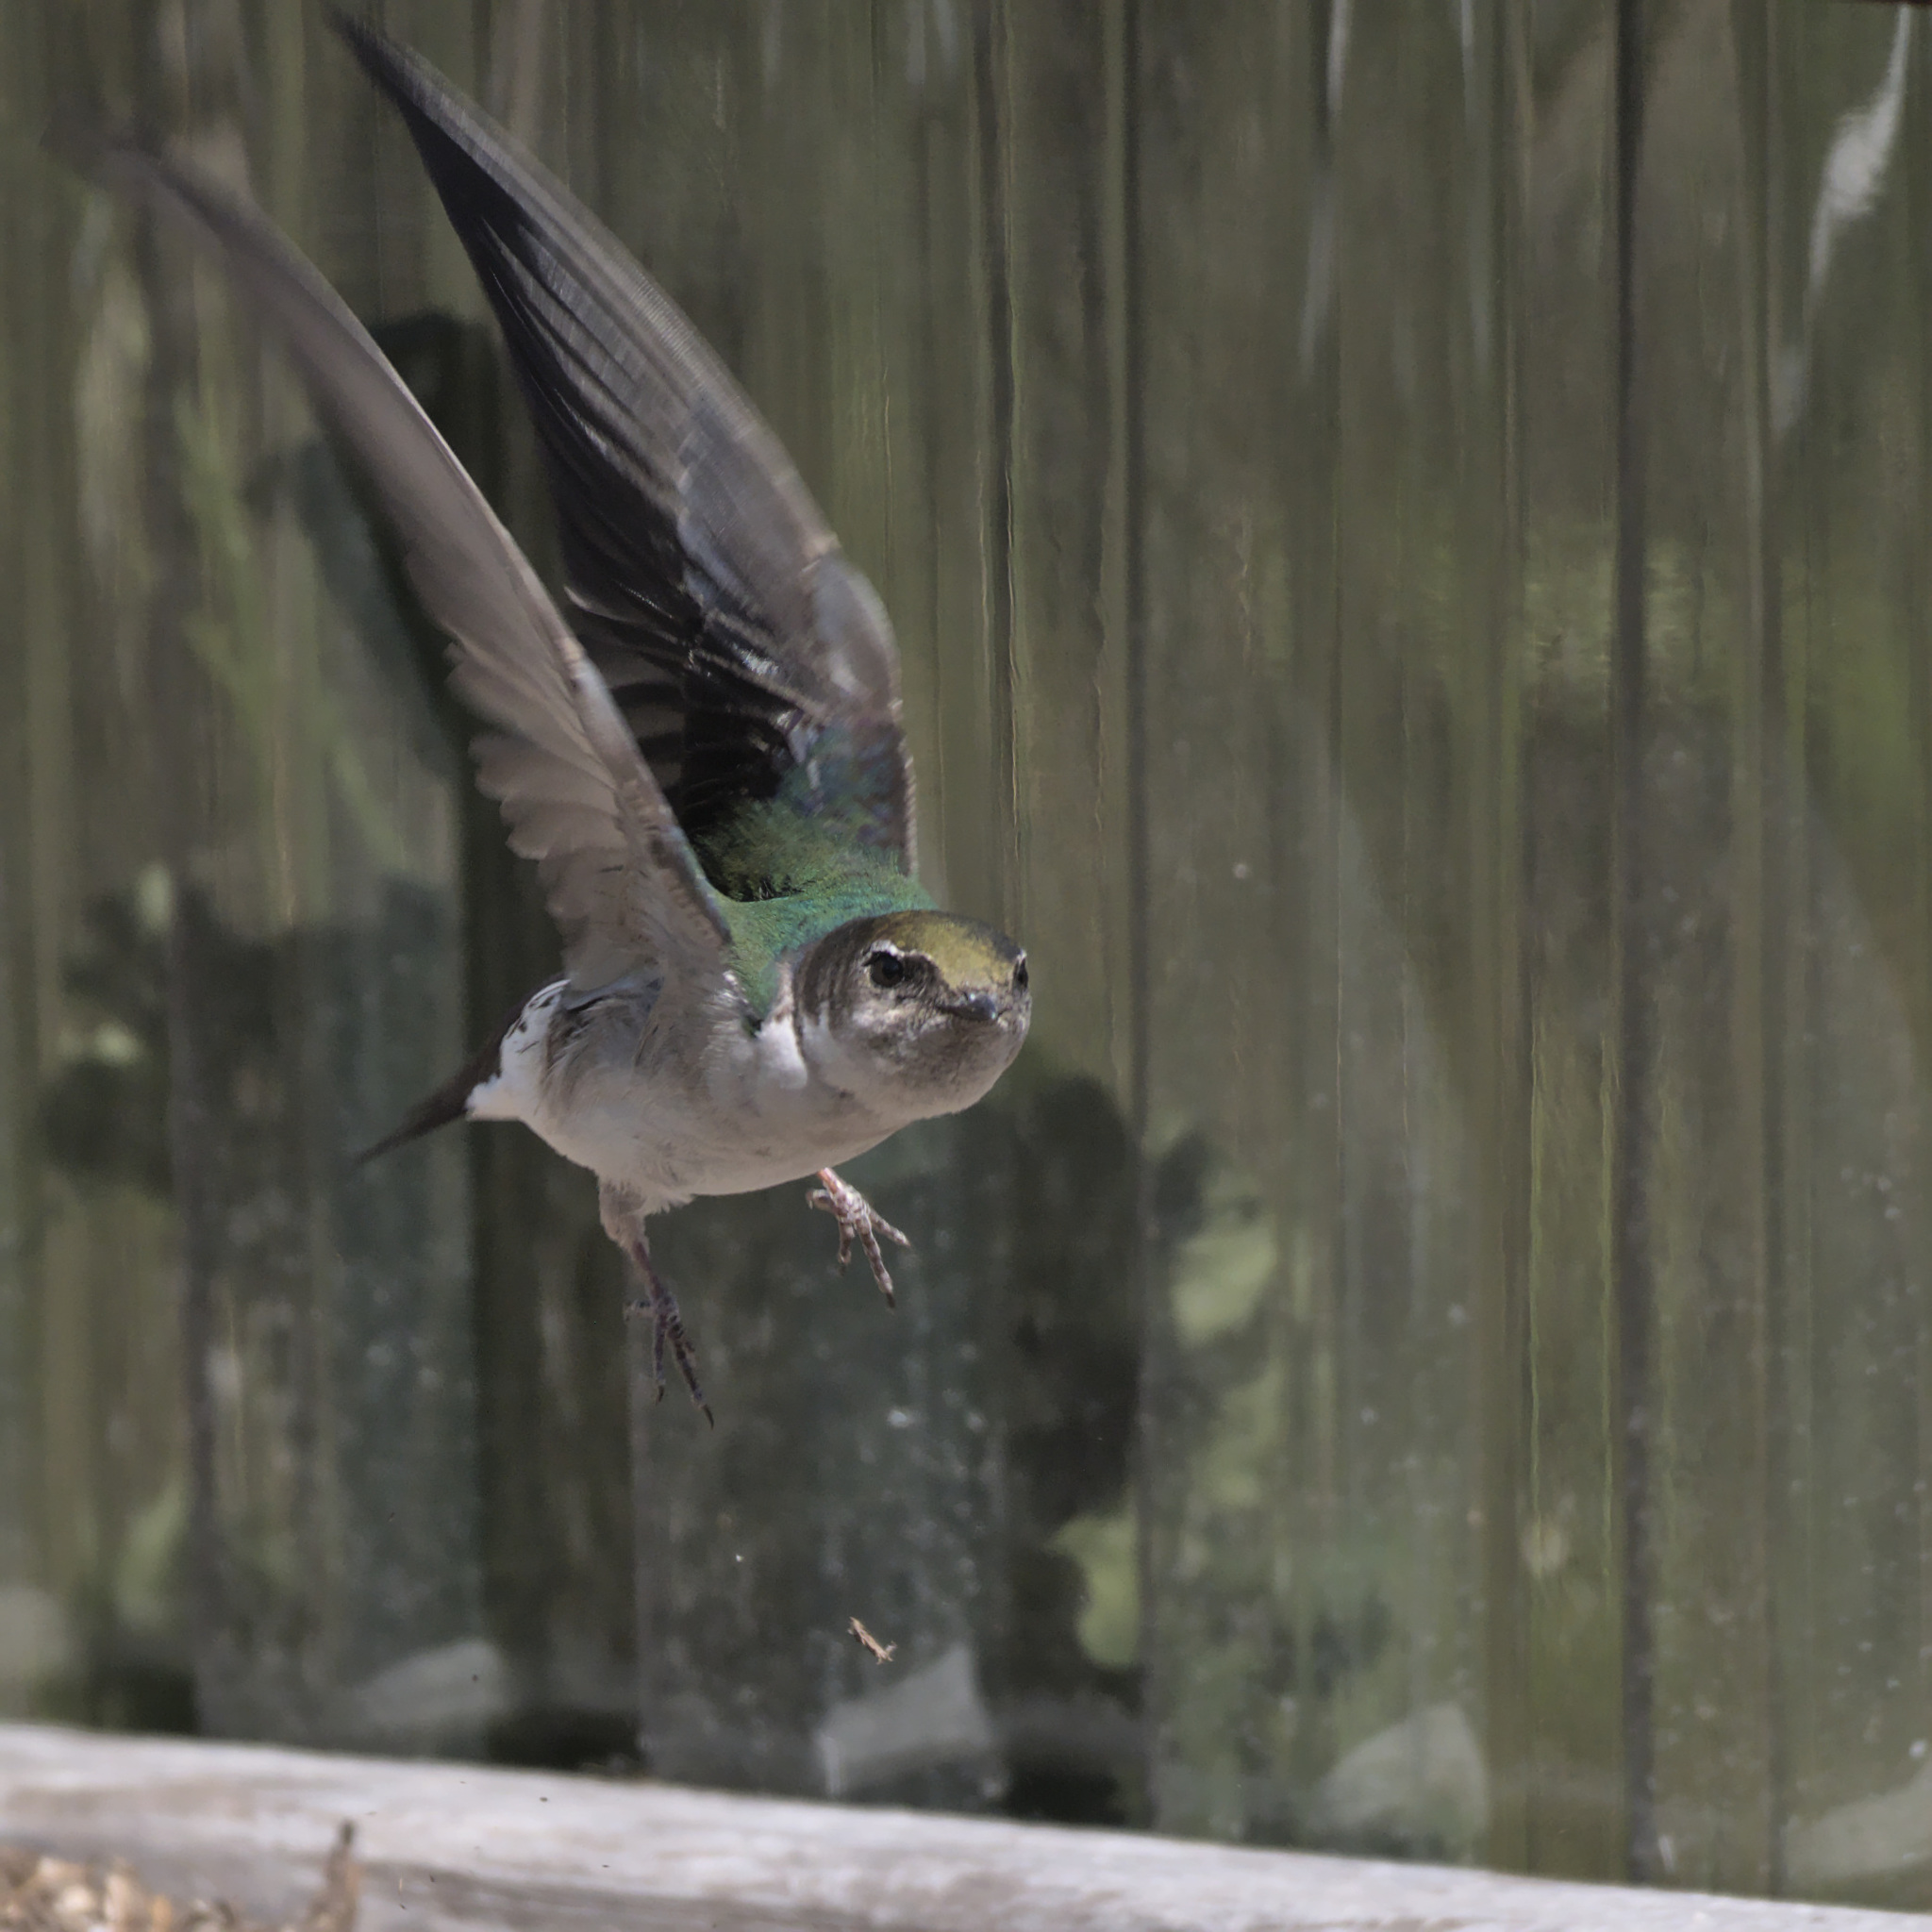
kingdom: Animalia
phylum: Chordata
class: Aves
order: Passeriformes
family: Hirundinidae
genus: Tachycineta
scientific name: Tachycineta thalassina
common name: Violet-green swallow
